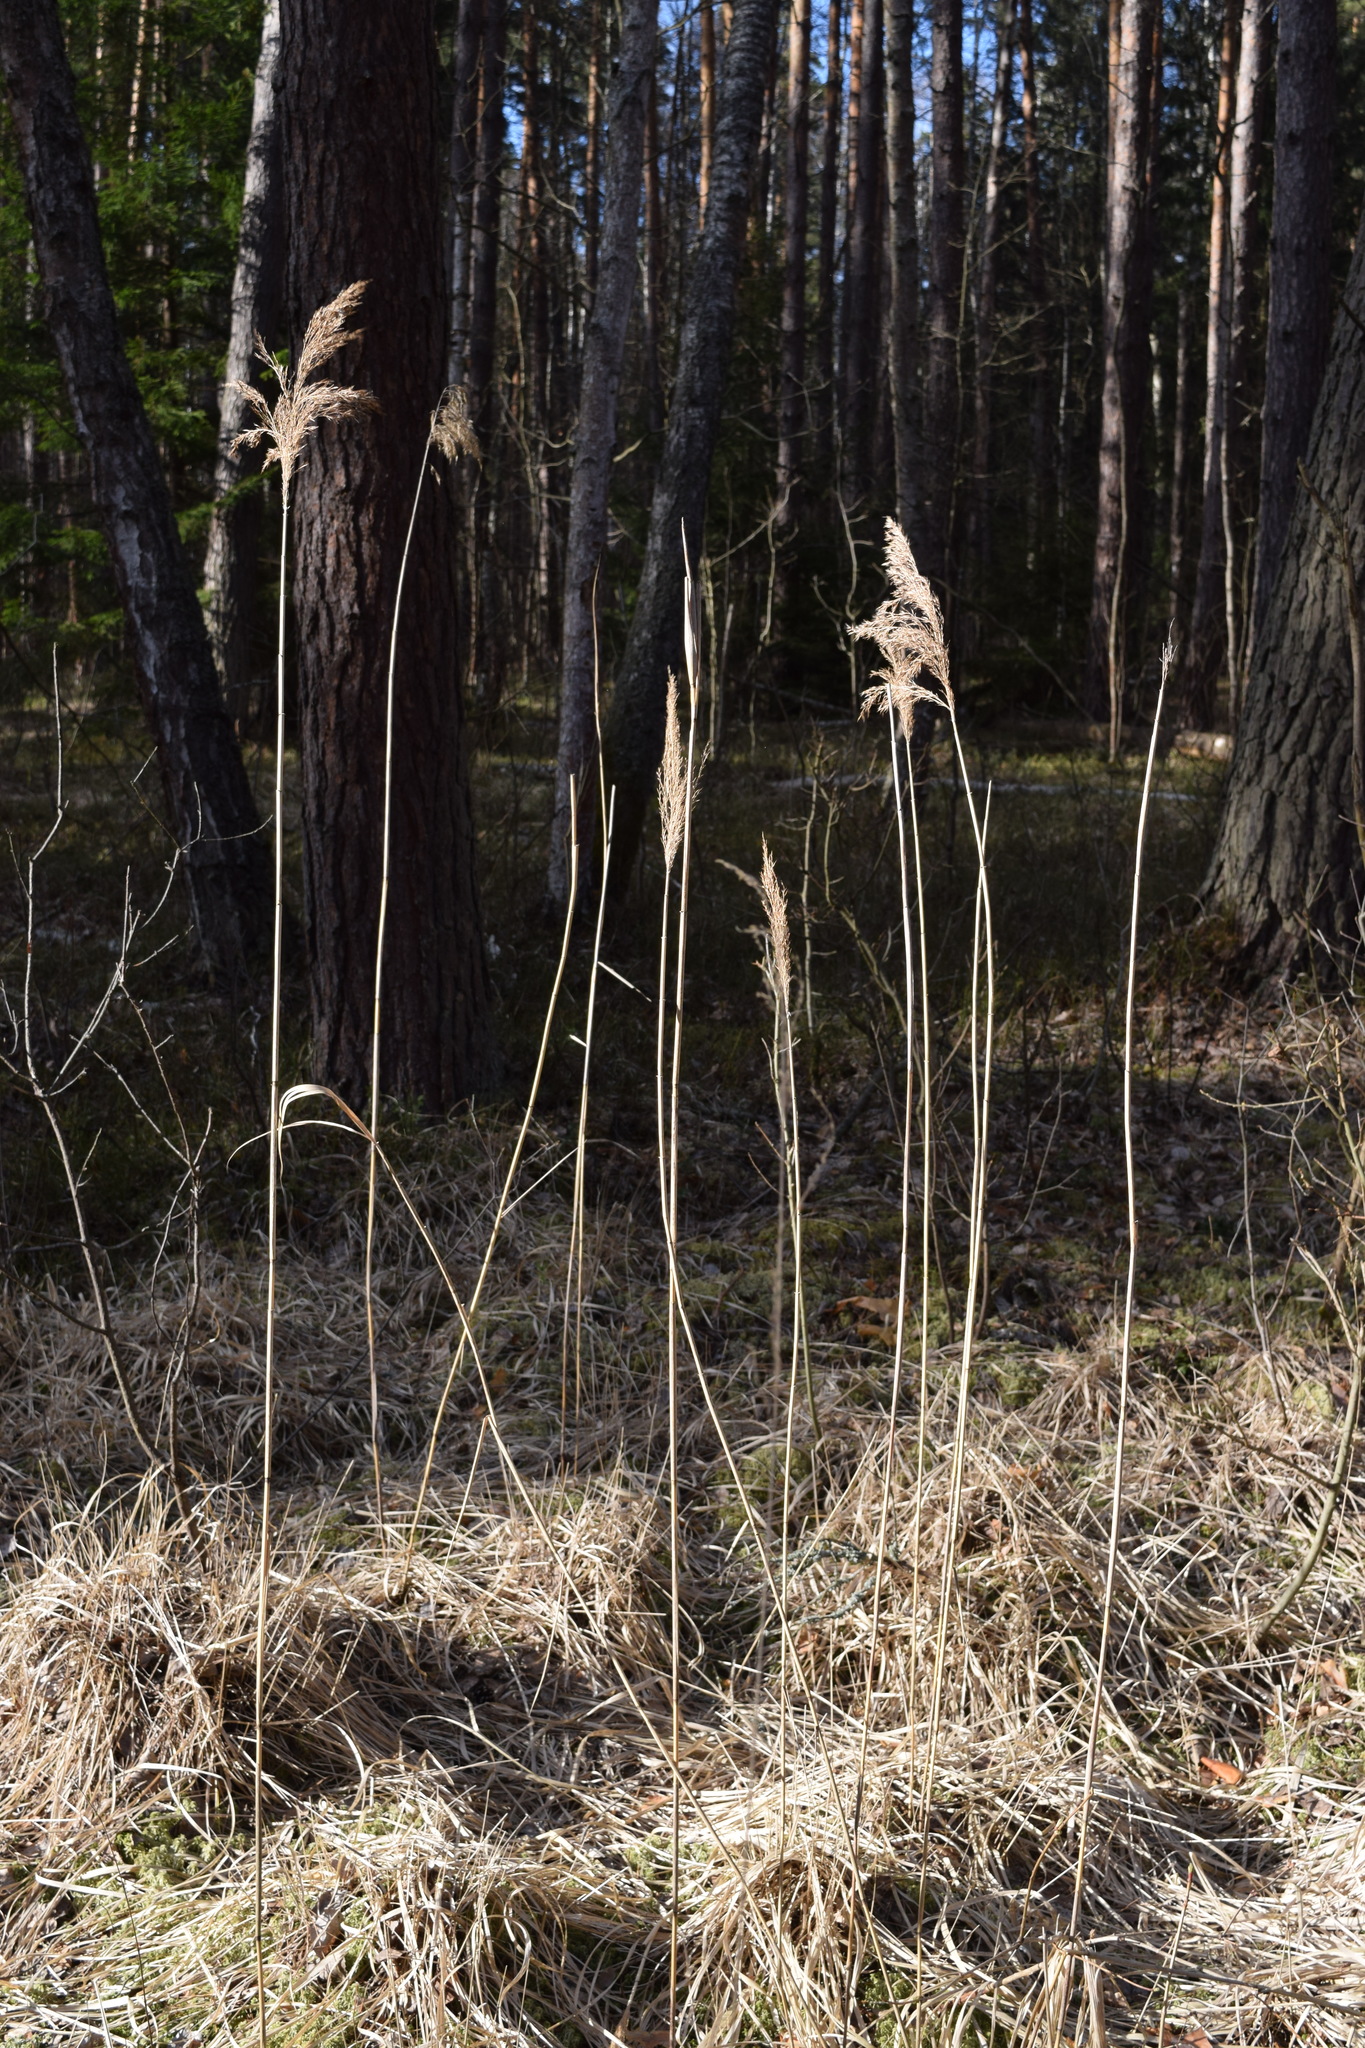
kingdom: Plantae
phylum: Tracheophyta
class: Liliopsida
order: Poales
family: Poaceae
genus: Phragmites
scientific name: Phragmites australis
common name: Common reed
